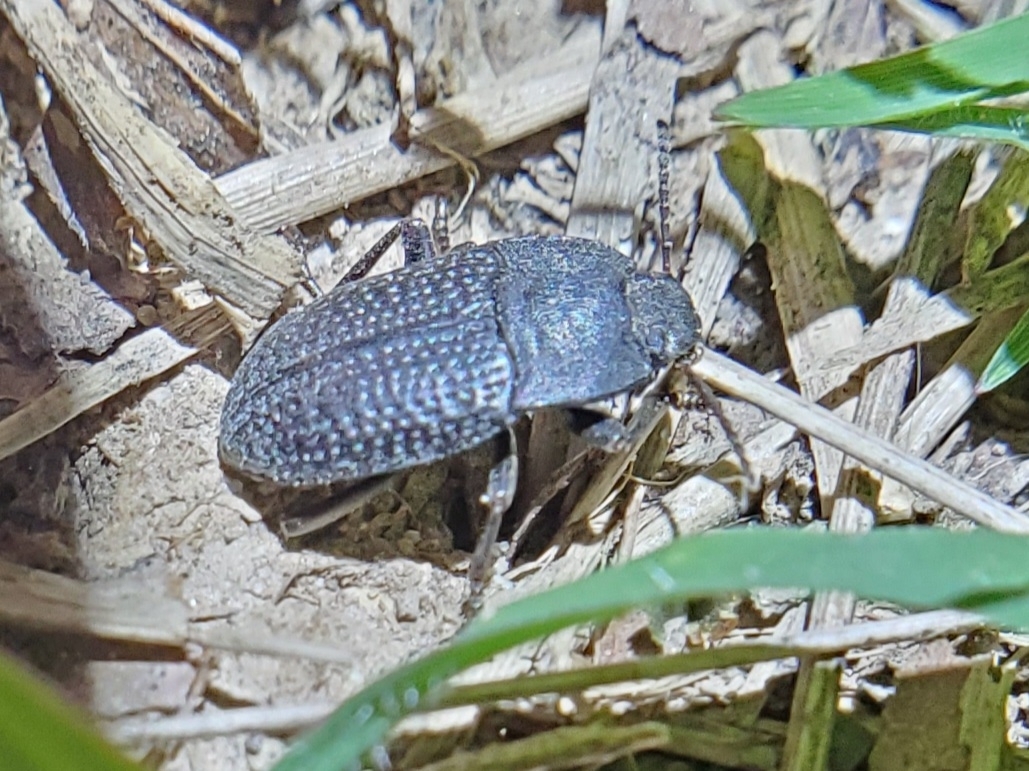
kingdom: Animalia
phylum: Arthropoda
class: Insecta
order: Coleoptera
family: Tenebrionidae
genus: Asiopus
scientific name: Asiopus
